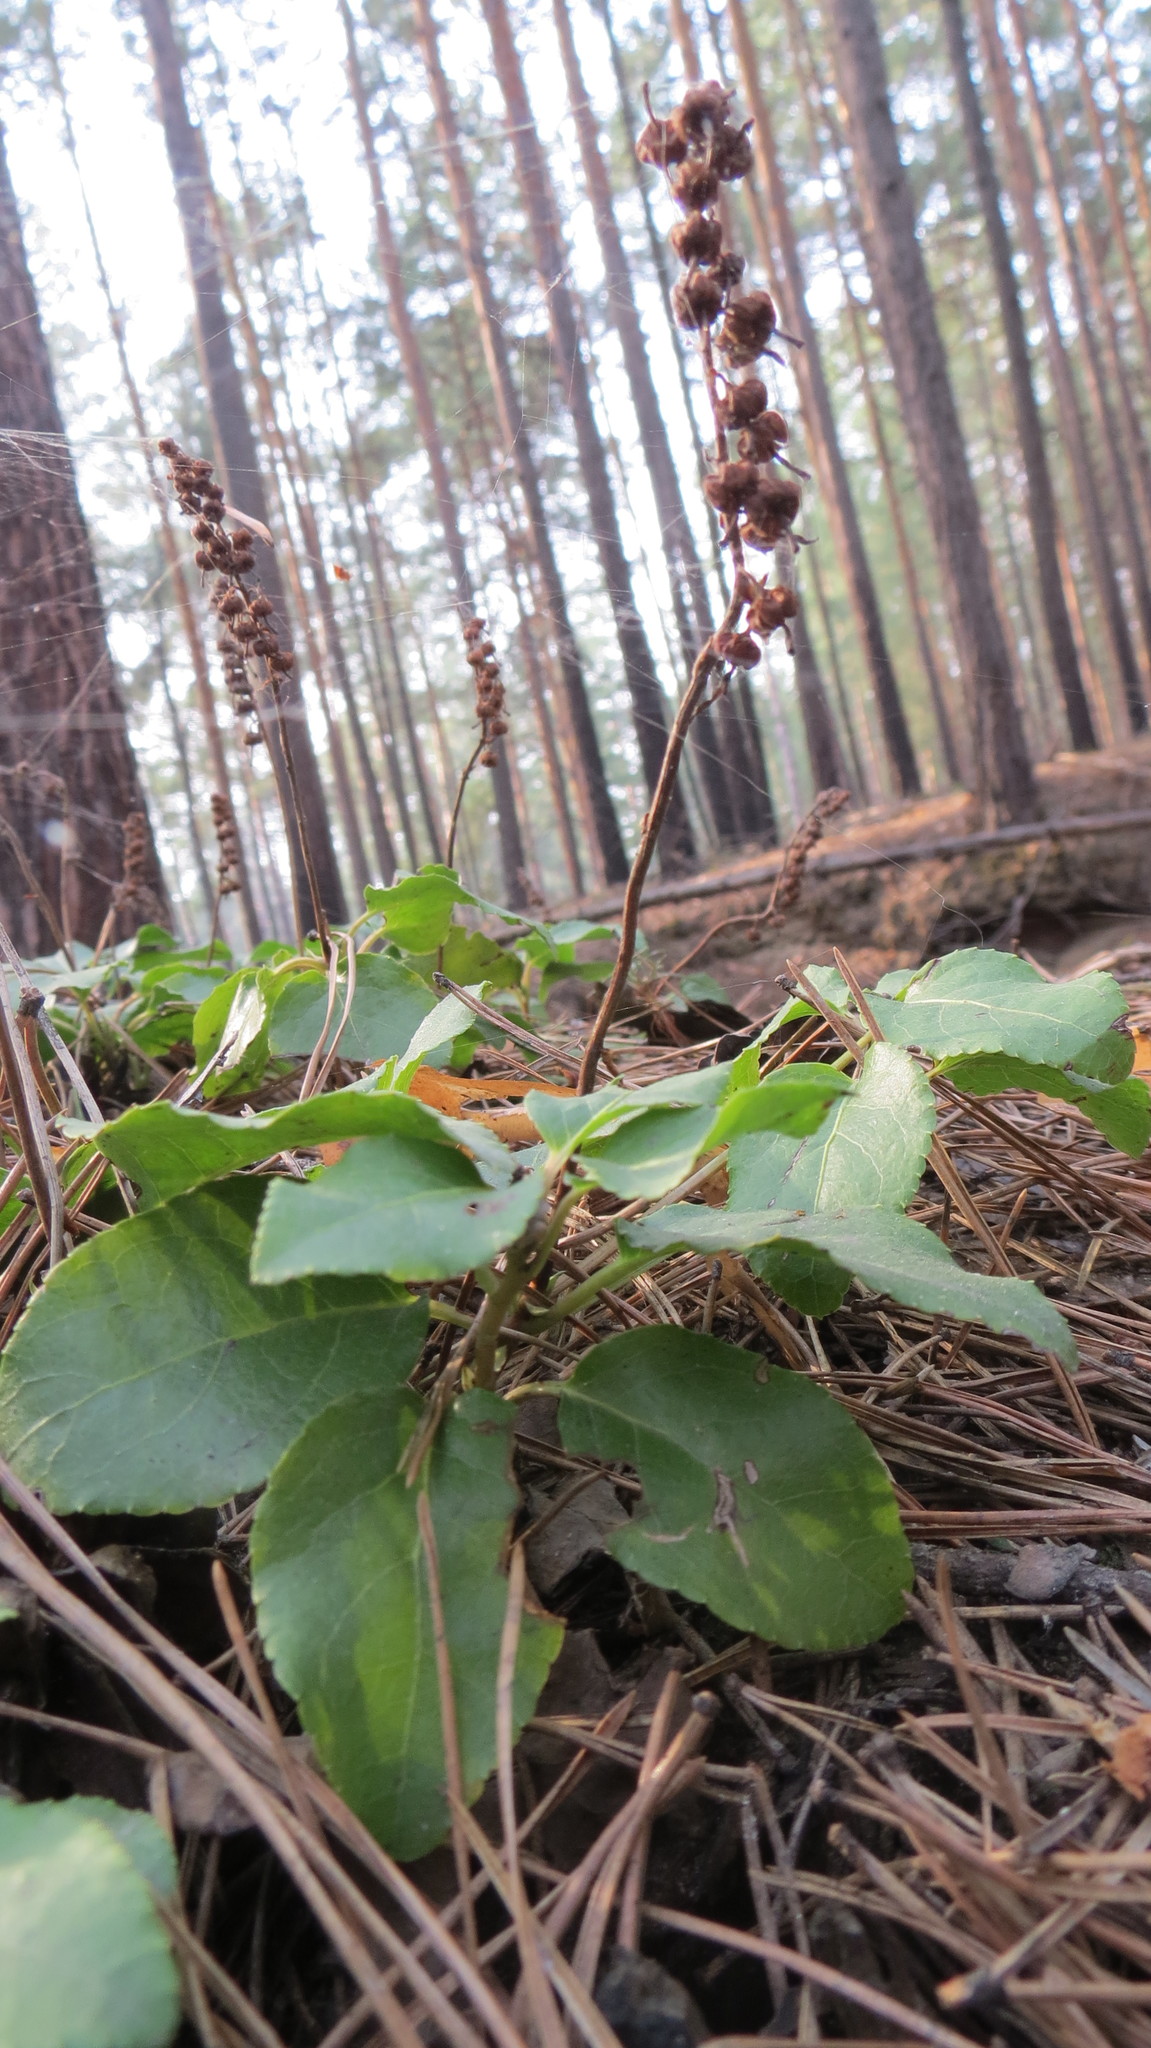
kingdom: Plantae
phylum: Tracheophyta
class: Magnoliopsida
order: Ericales
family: Ericaceae
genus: Orthilia
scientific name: Orthilia secunda
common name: One-sided orthilia
